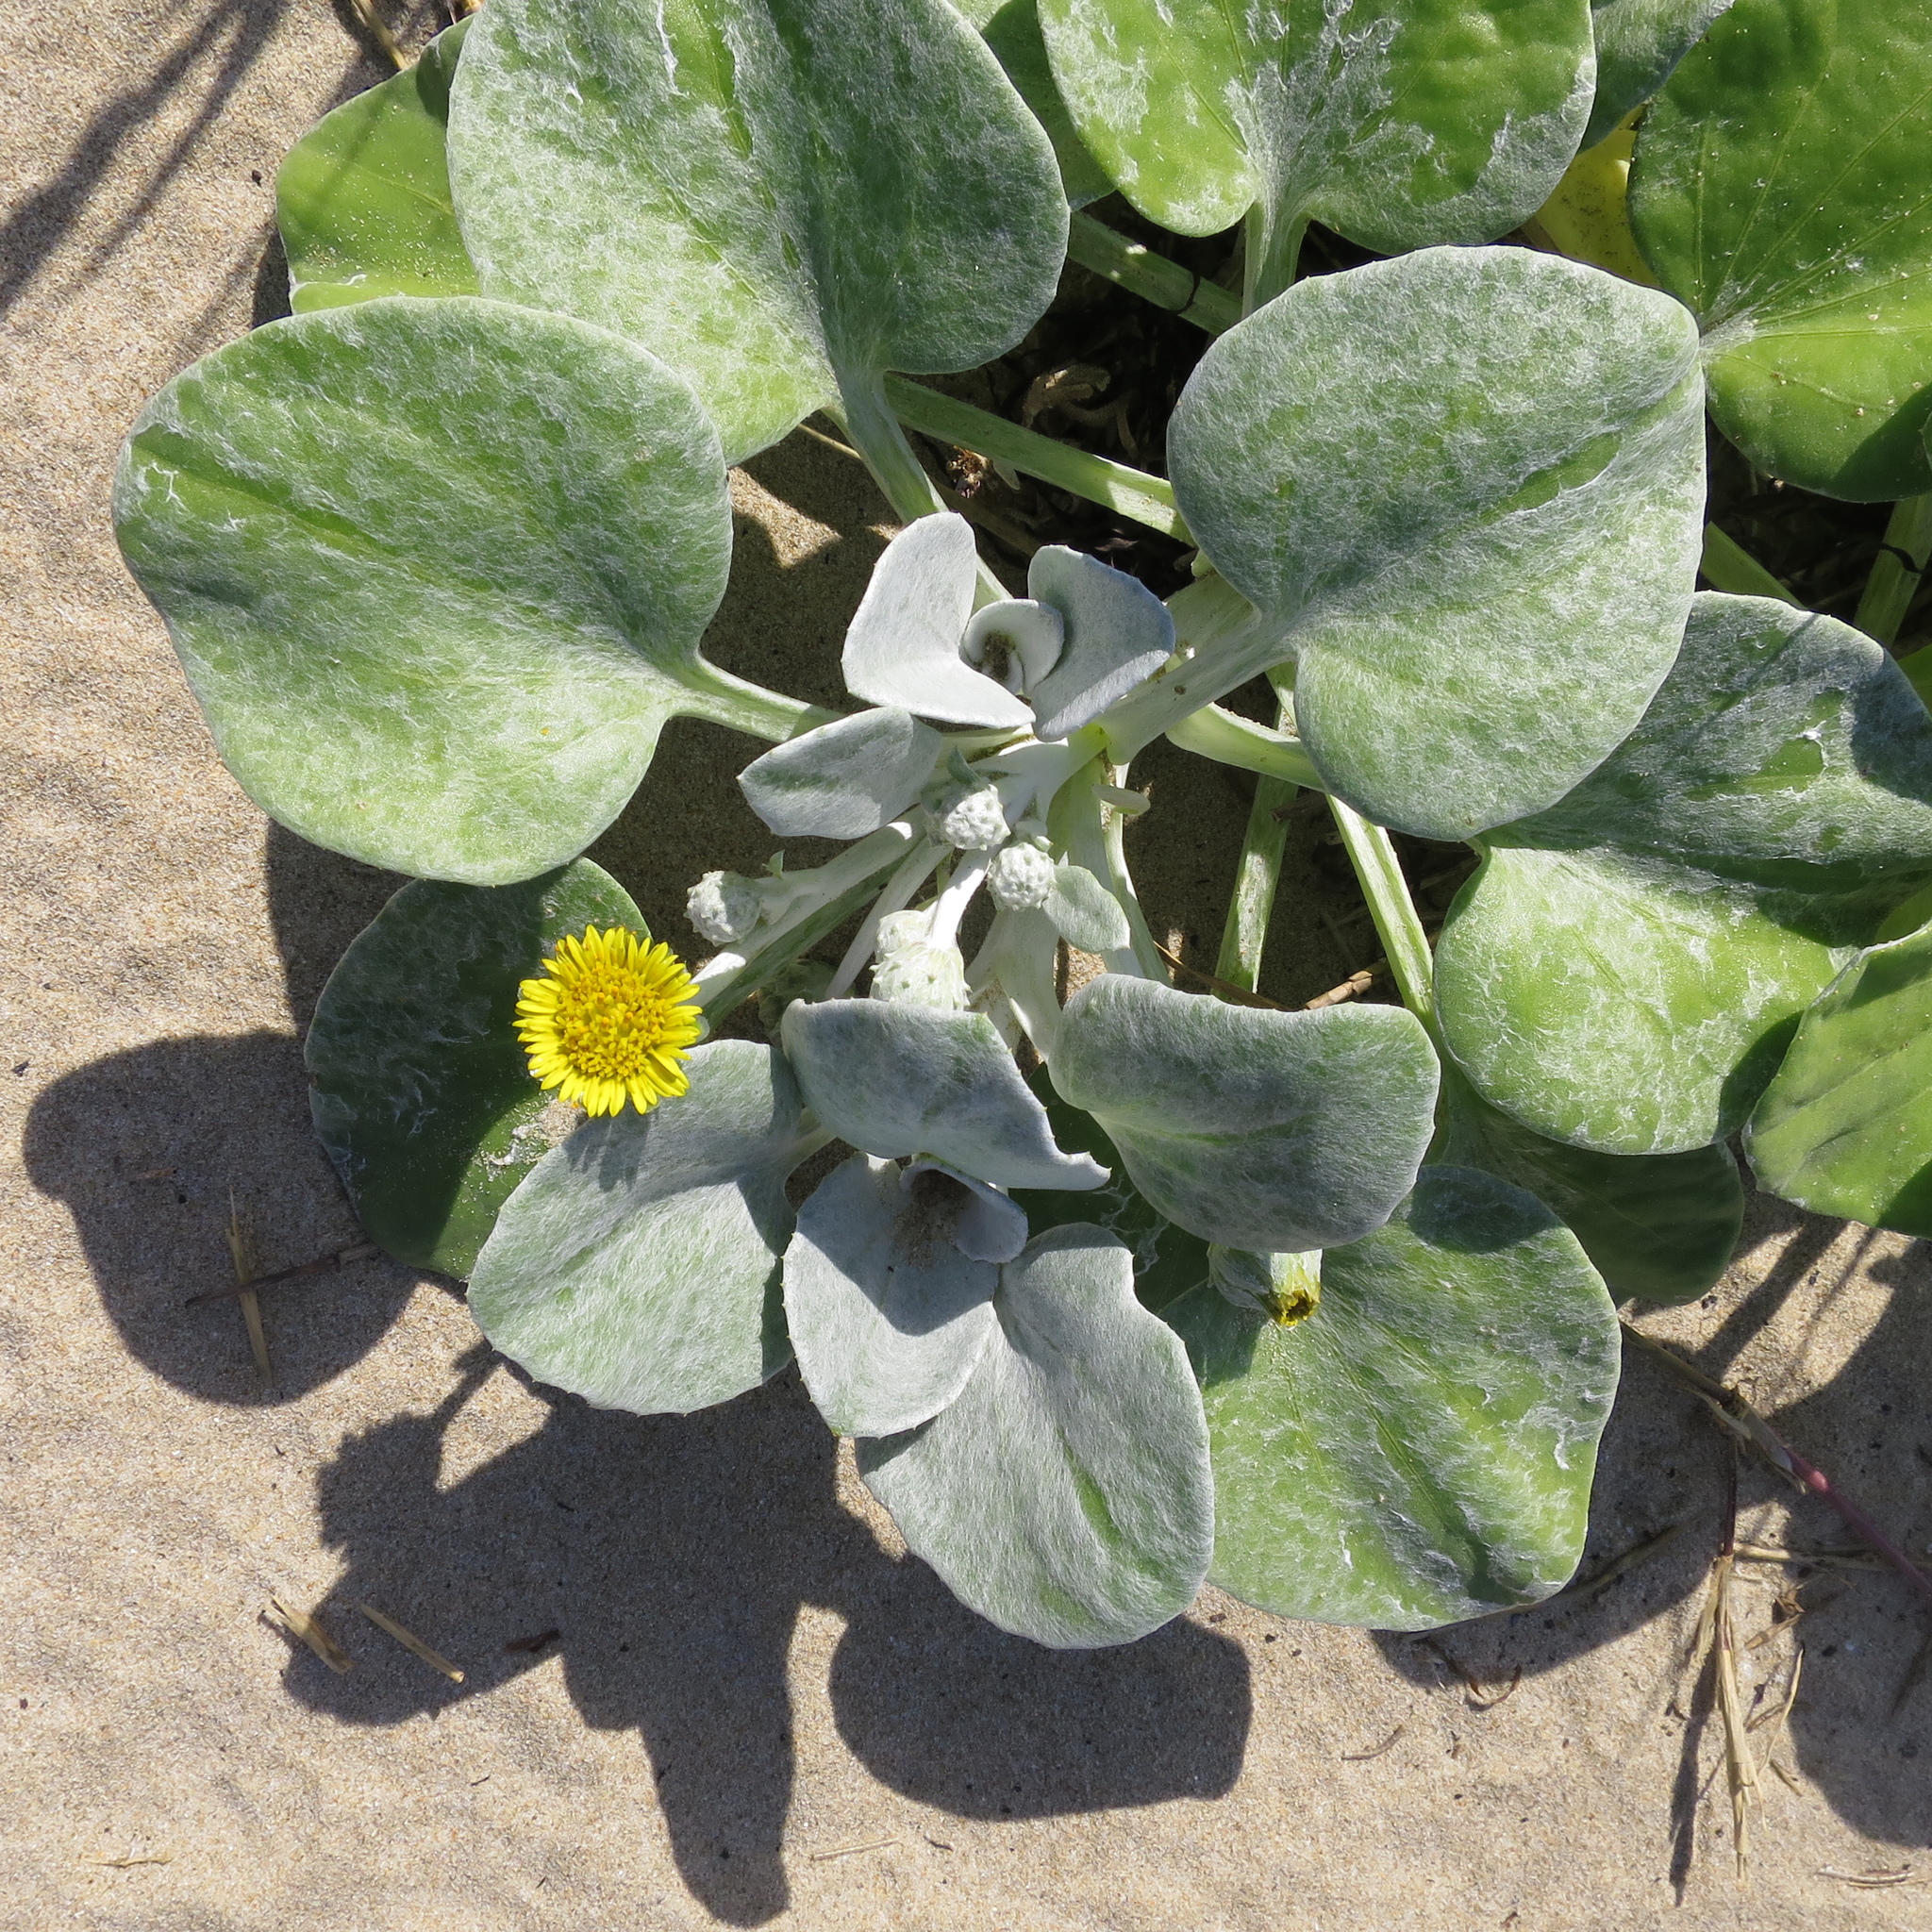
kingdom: Plantae
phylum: Tracheophyta
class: Magnoliopsida
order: Asterales
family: Asteraceae
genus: Arctotheca
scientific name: Arctotheca populifolia
